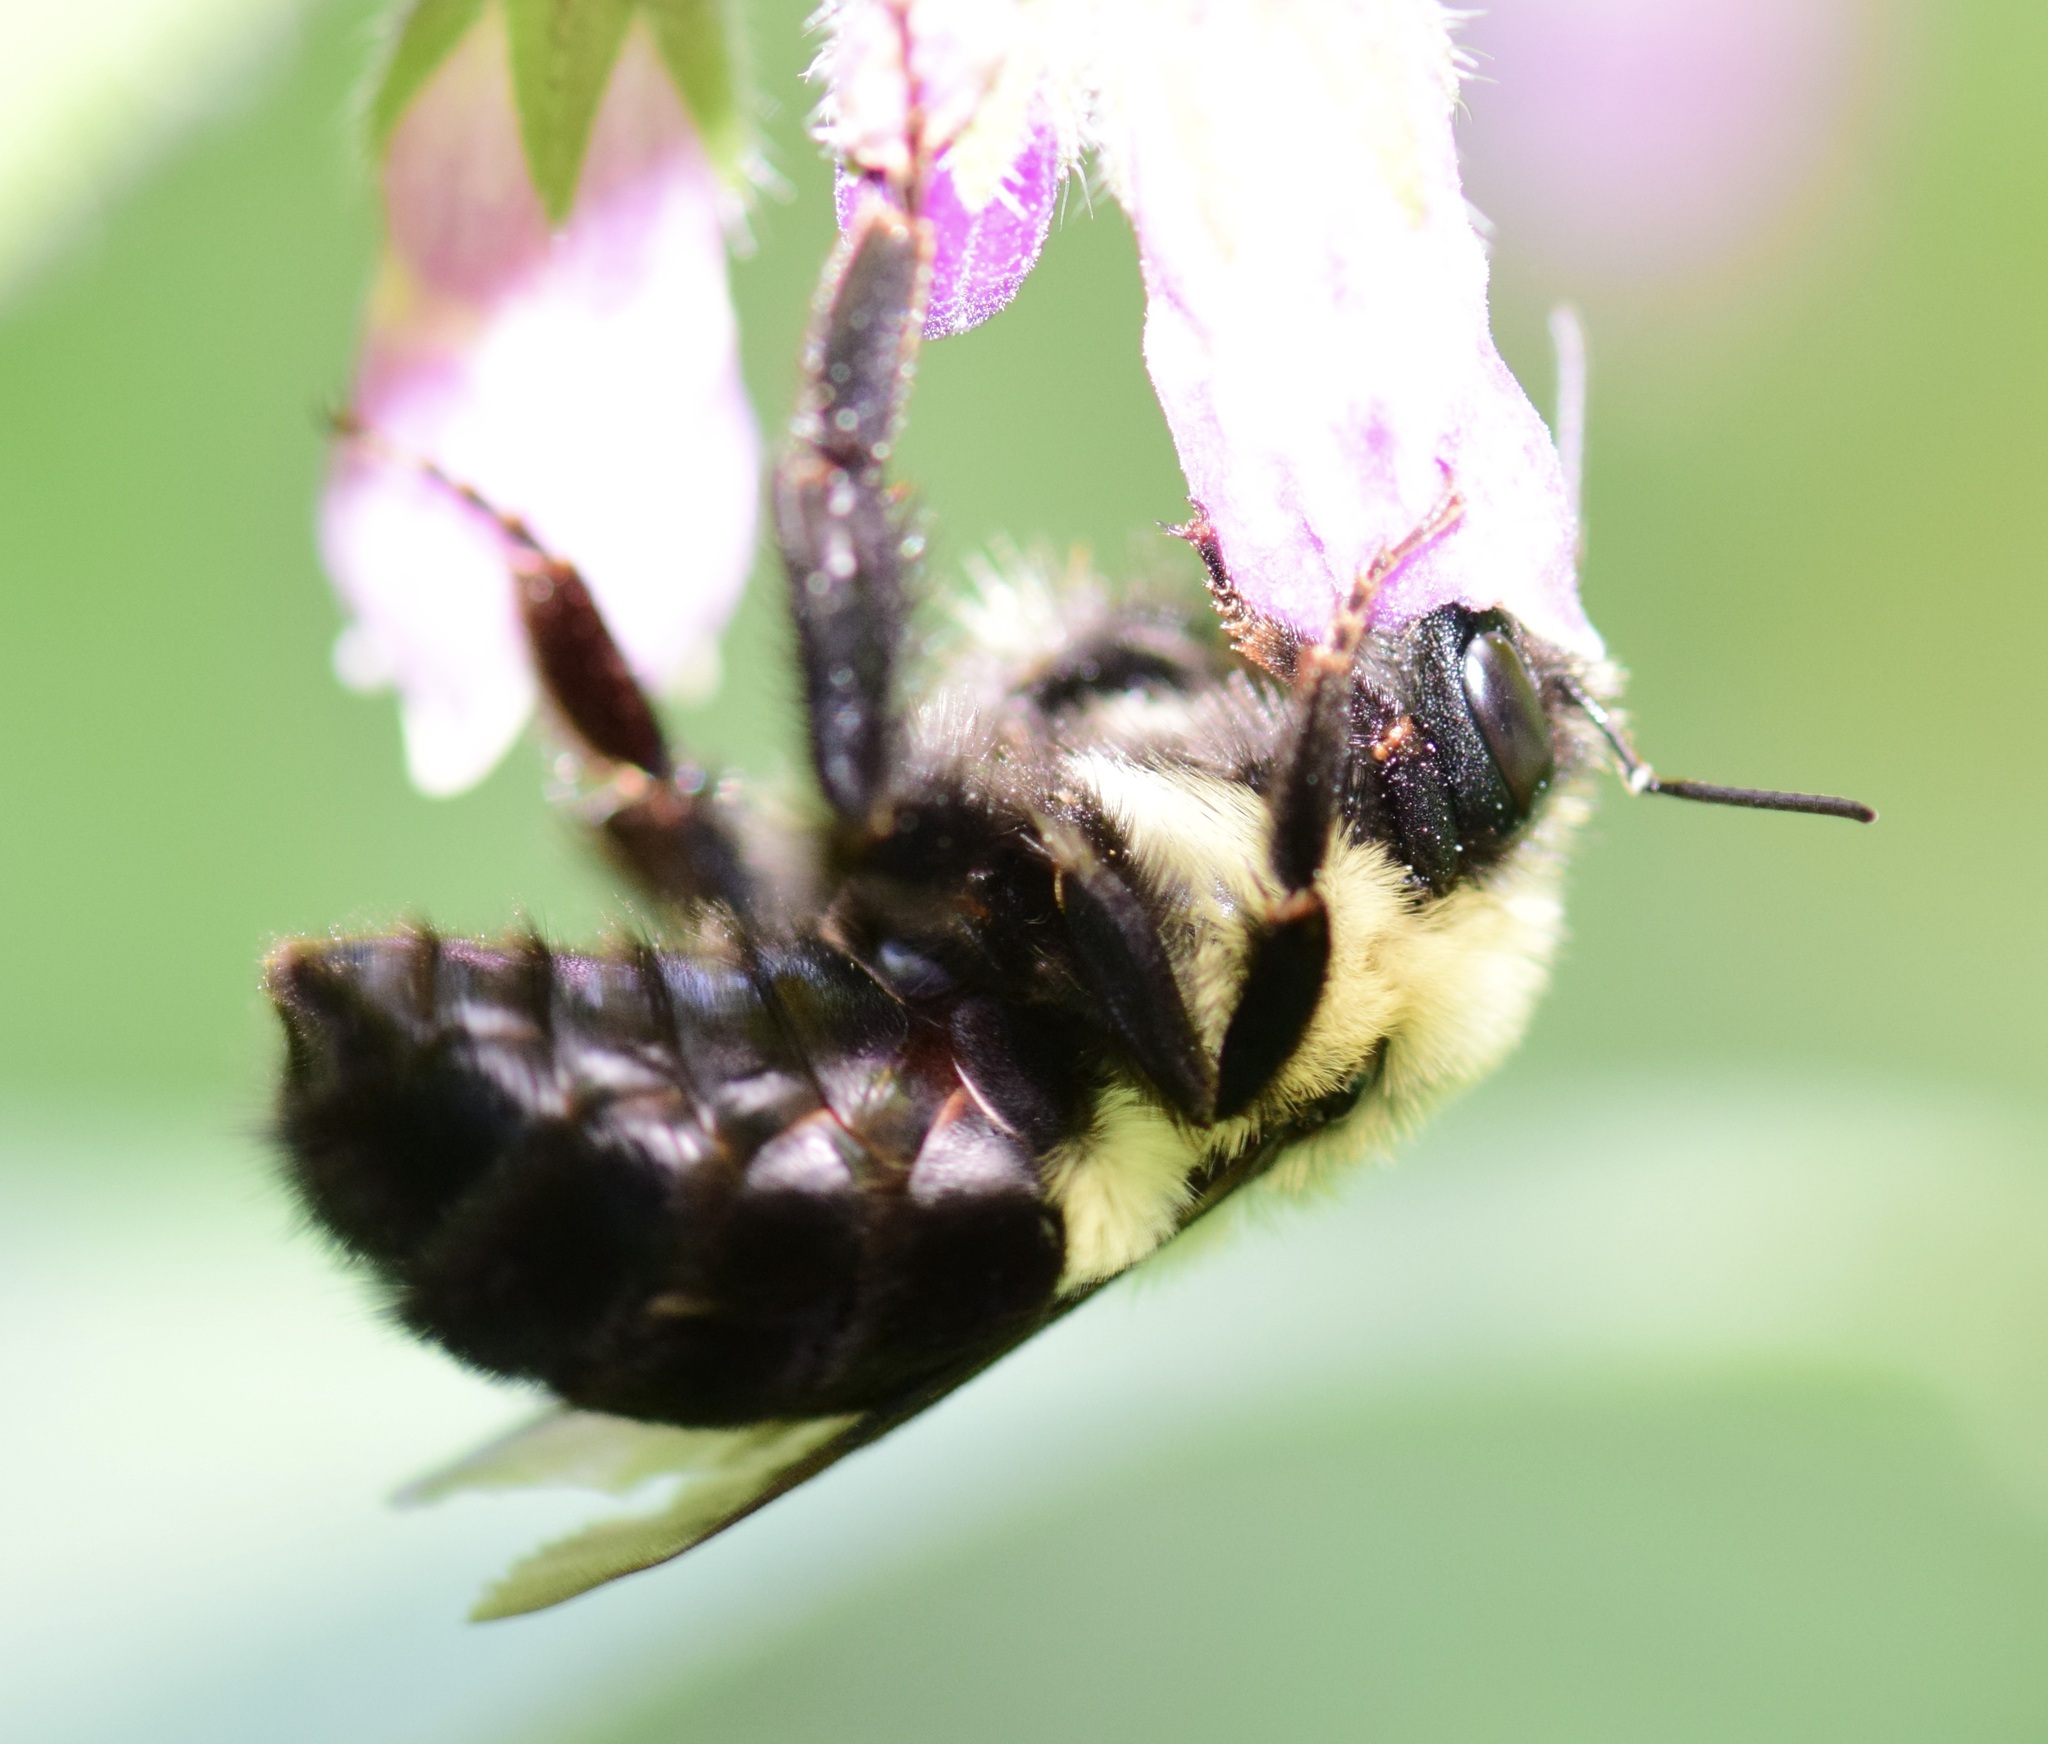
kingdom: Animalia
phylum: Arthropoda
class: Insecta
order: Hymenoptera
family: Apidae
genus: Bombus
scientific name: Bombus impatiens
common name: Common eastern bumble bee
